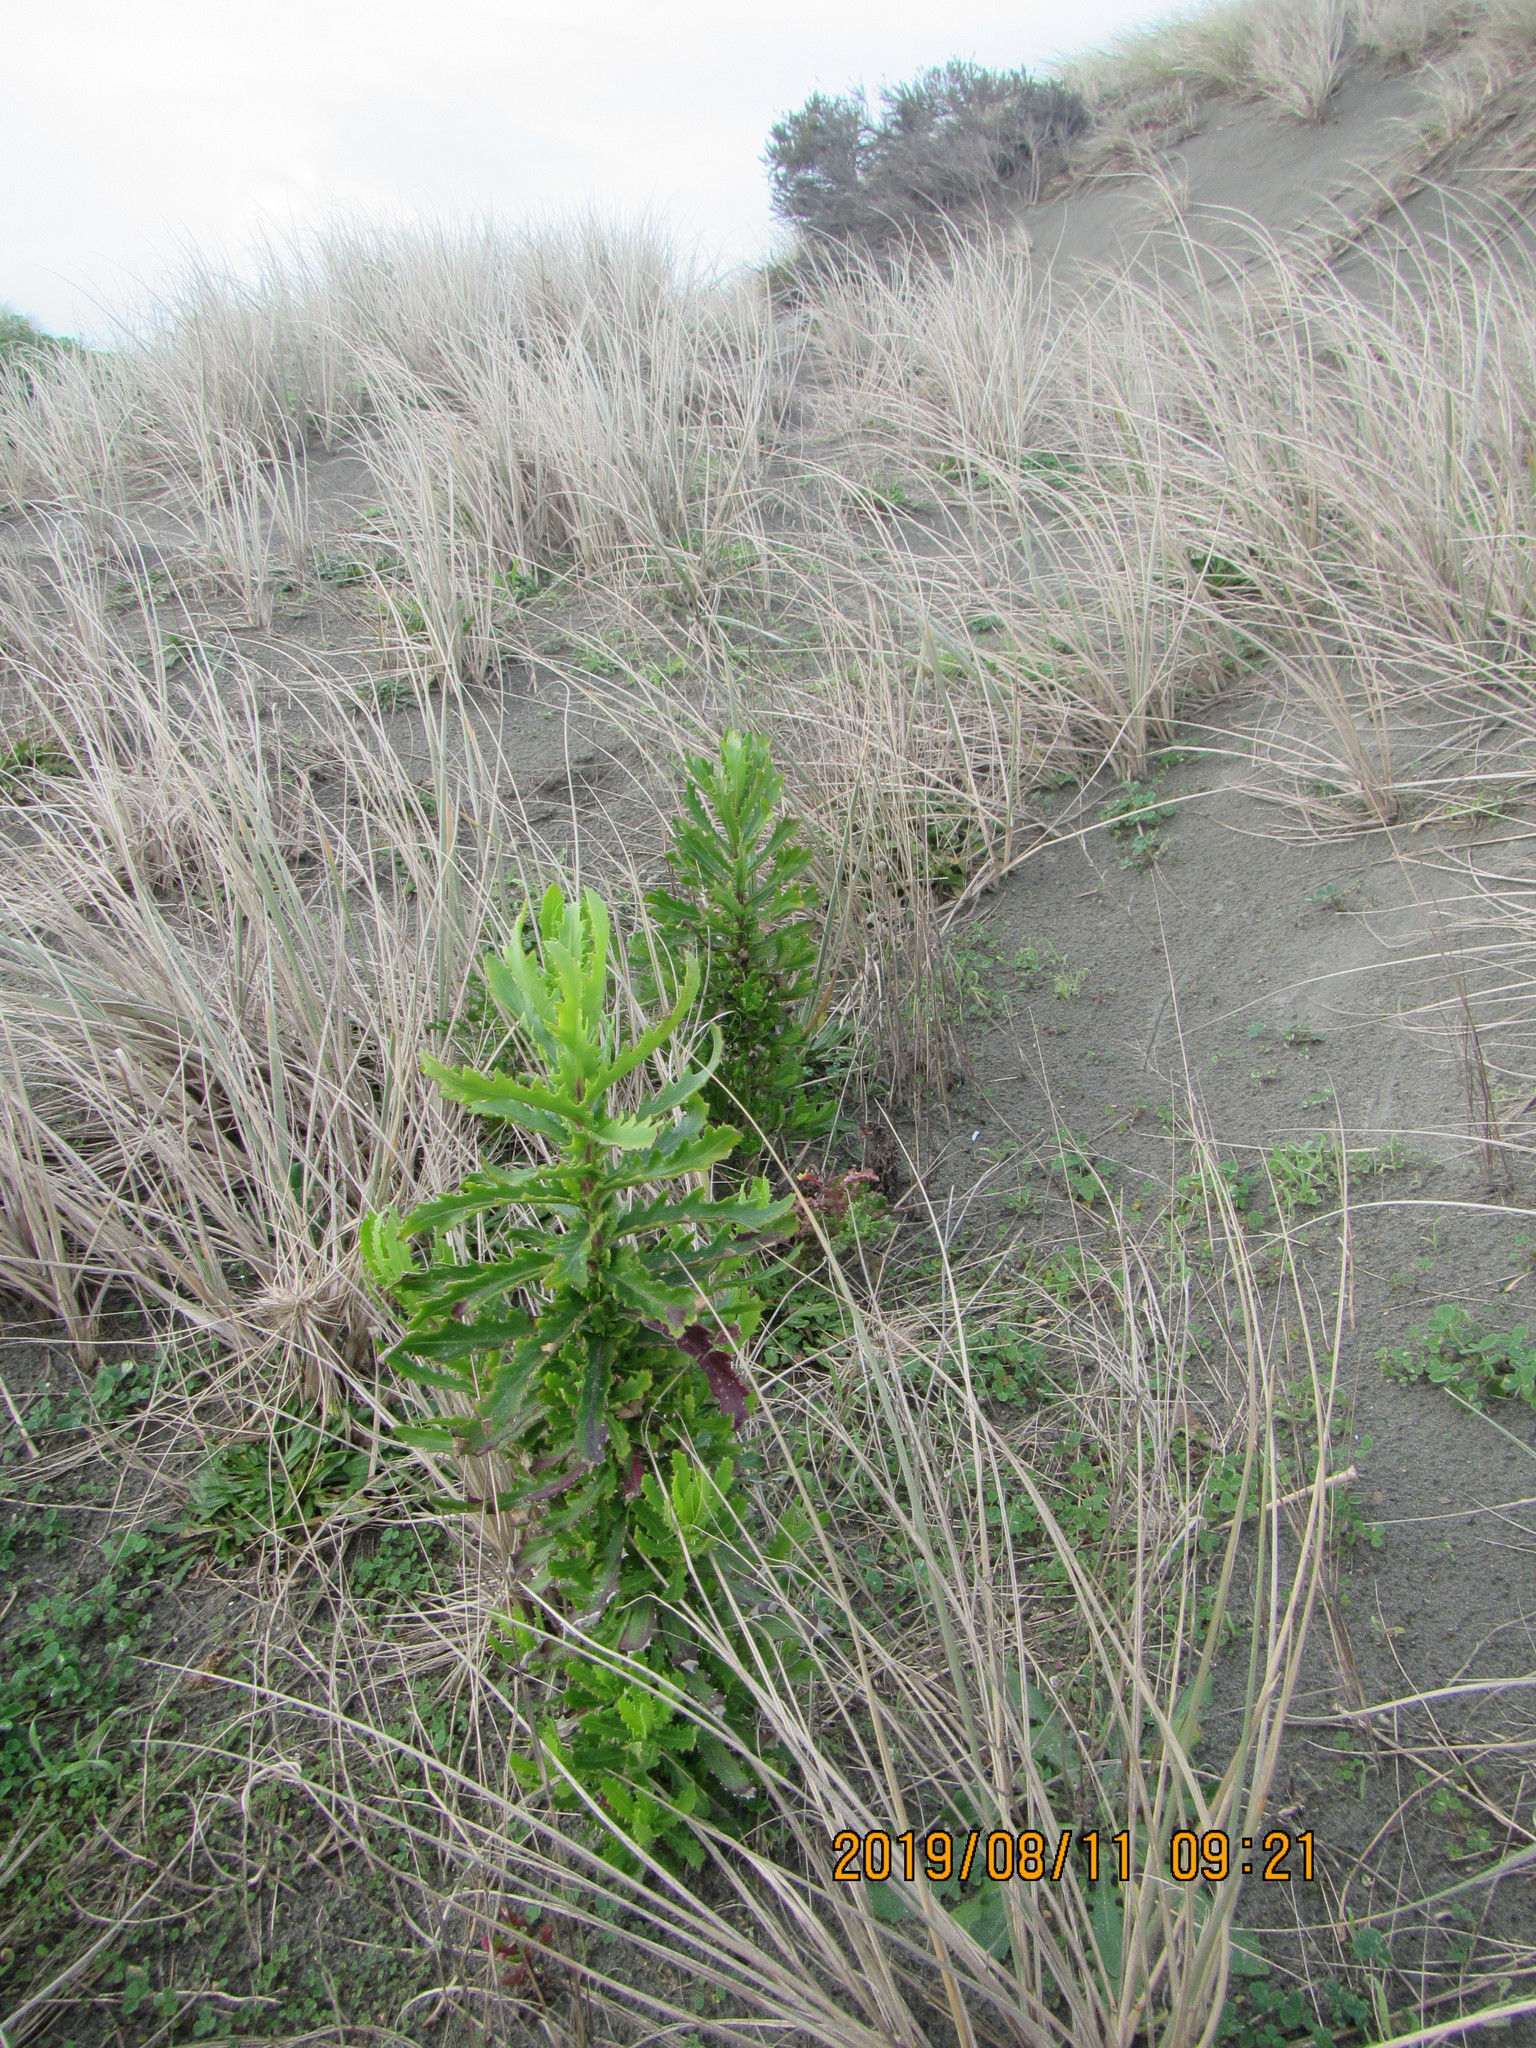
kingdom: Plantae
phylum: Tracheophyta
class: Magnoliopsida
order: Asterales
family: Asteraceae
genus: Senecio
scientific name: Senecio glastifolius
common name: Woad-leaved ragwort
